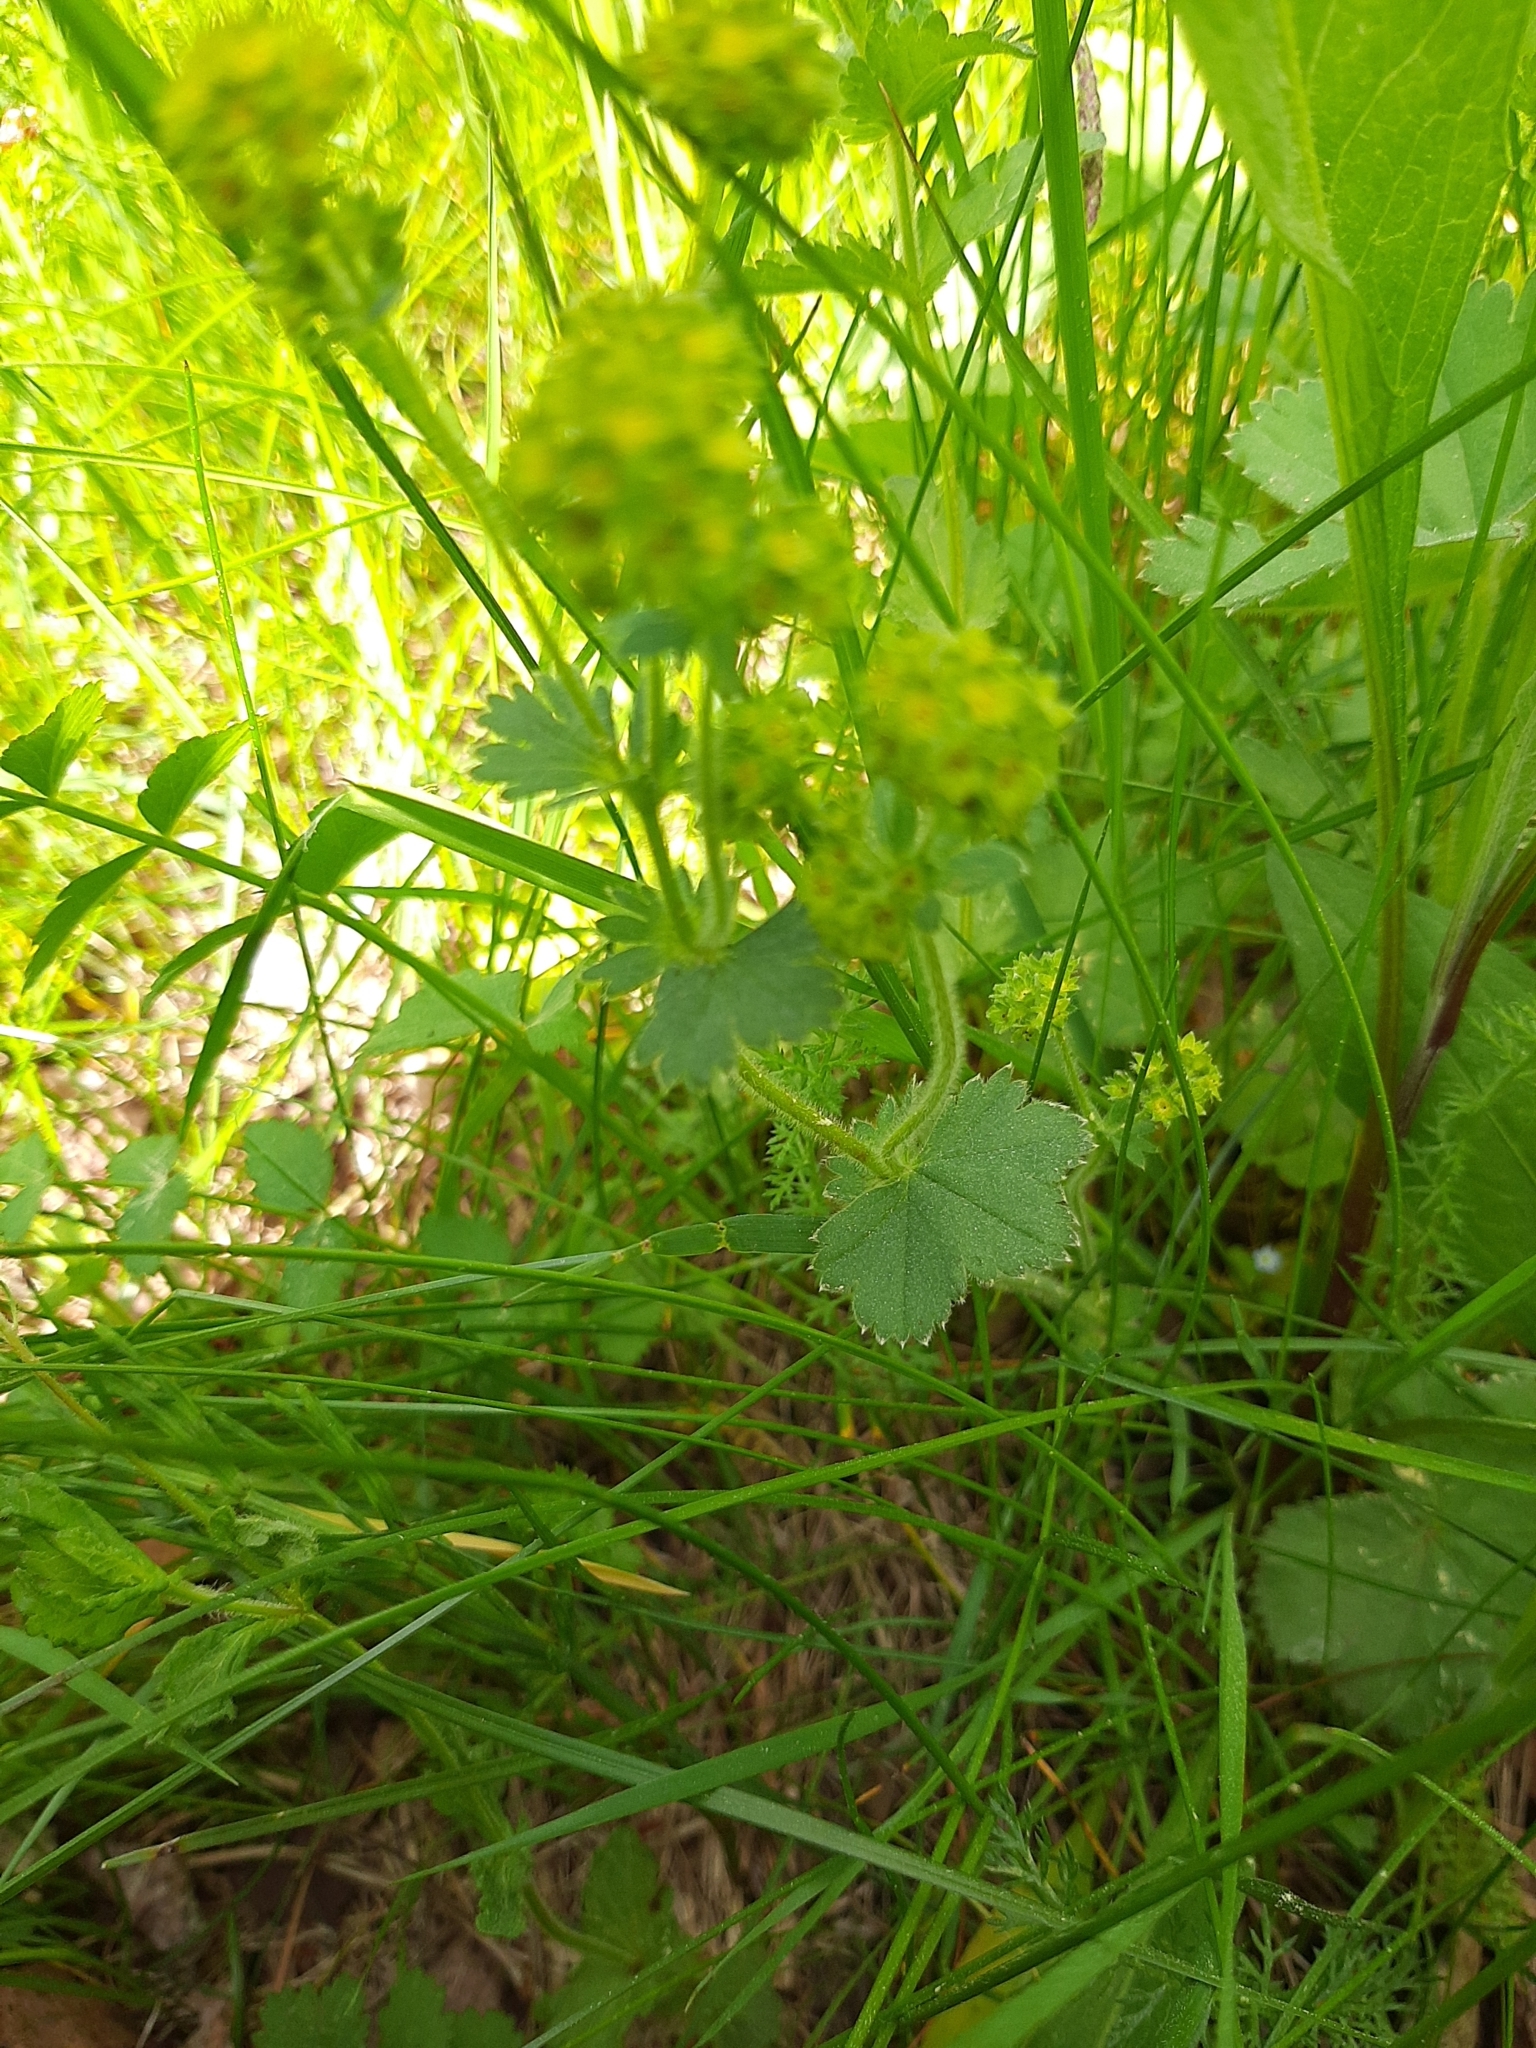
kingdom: Plantae
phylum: Tracheophyta
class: Magnoliopsida
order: Rosales
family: Rosaceae
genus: Alchemilla
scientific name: Alchemilla
